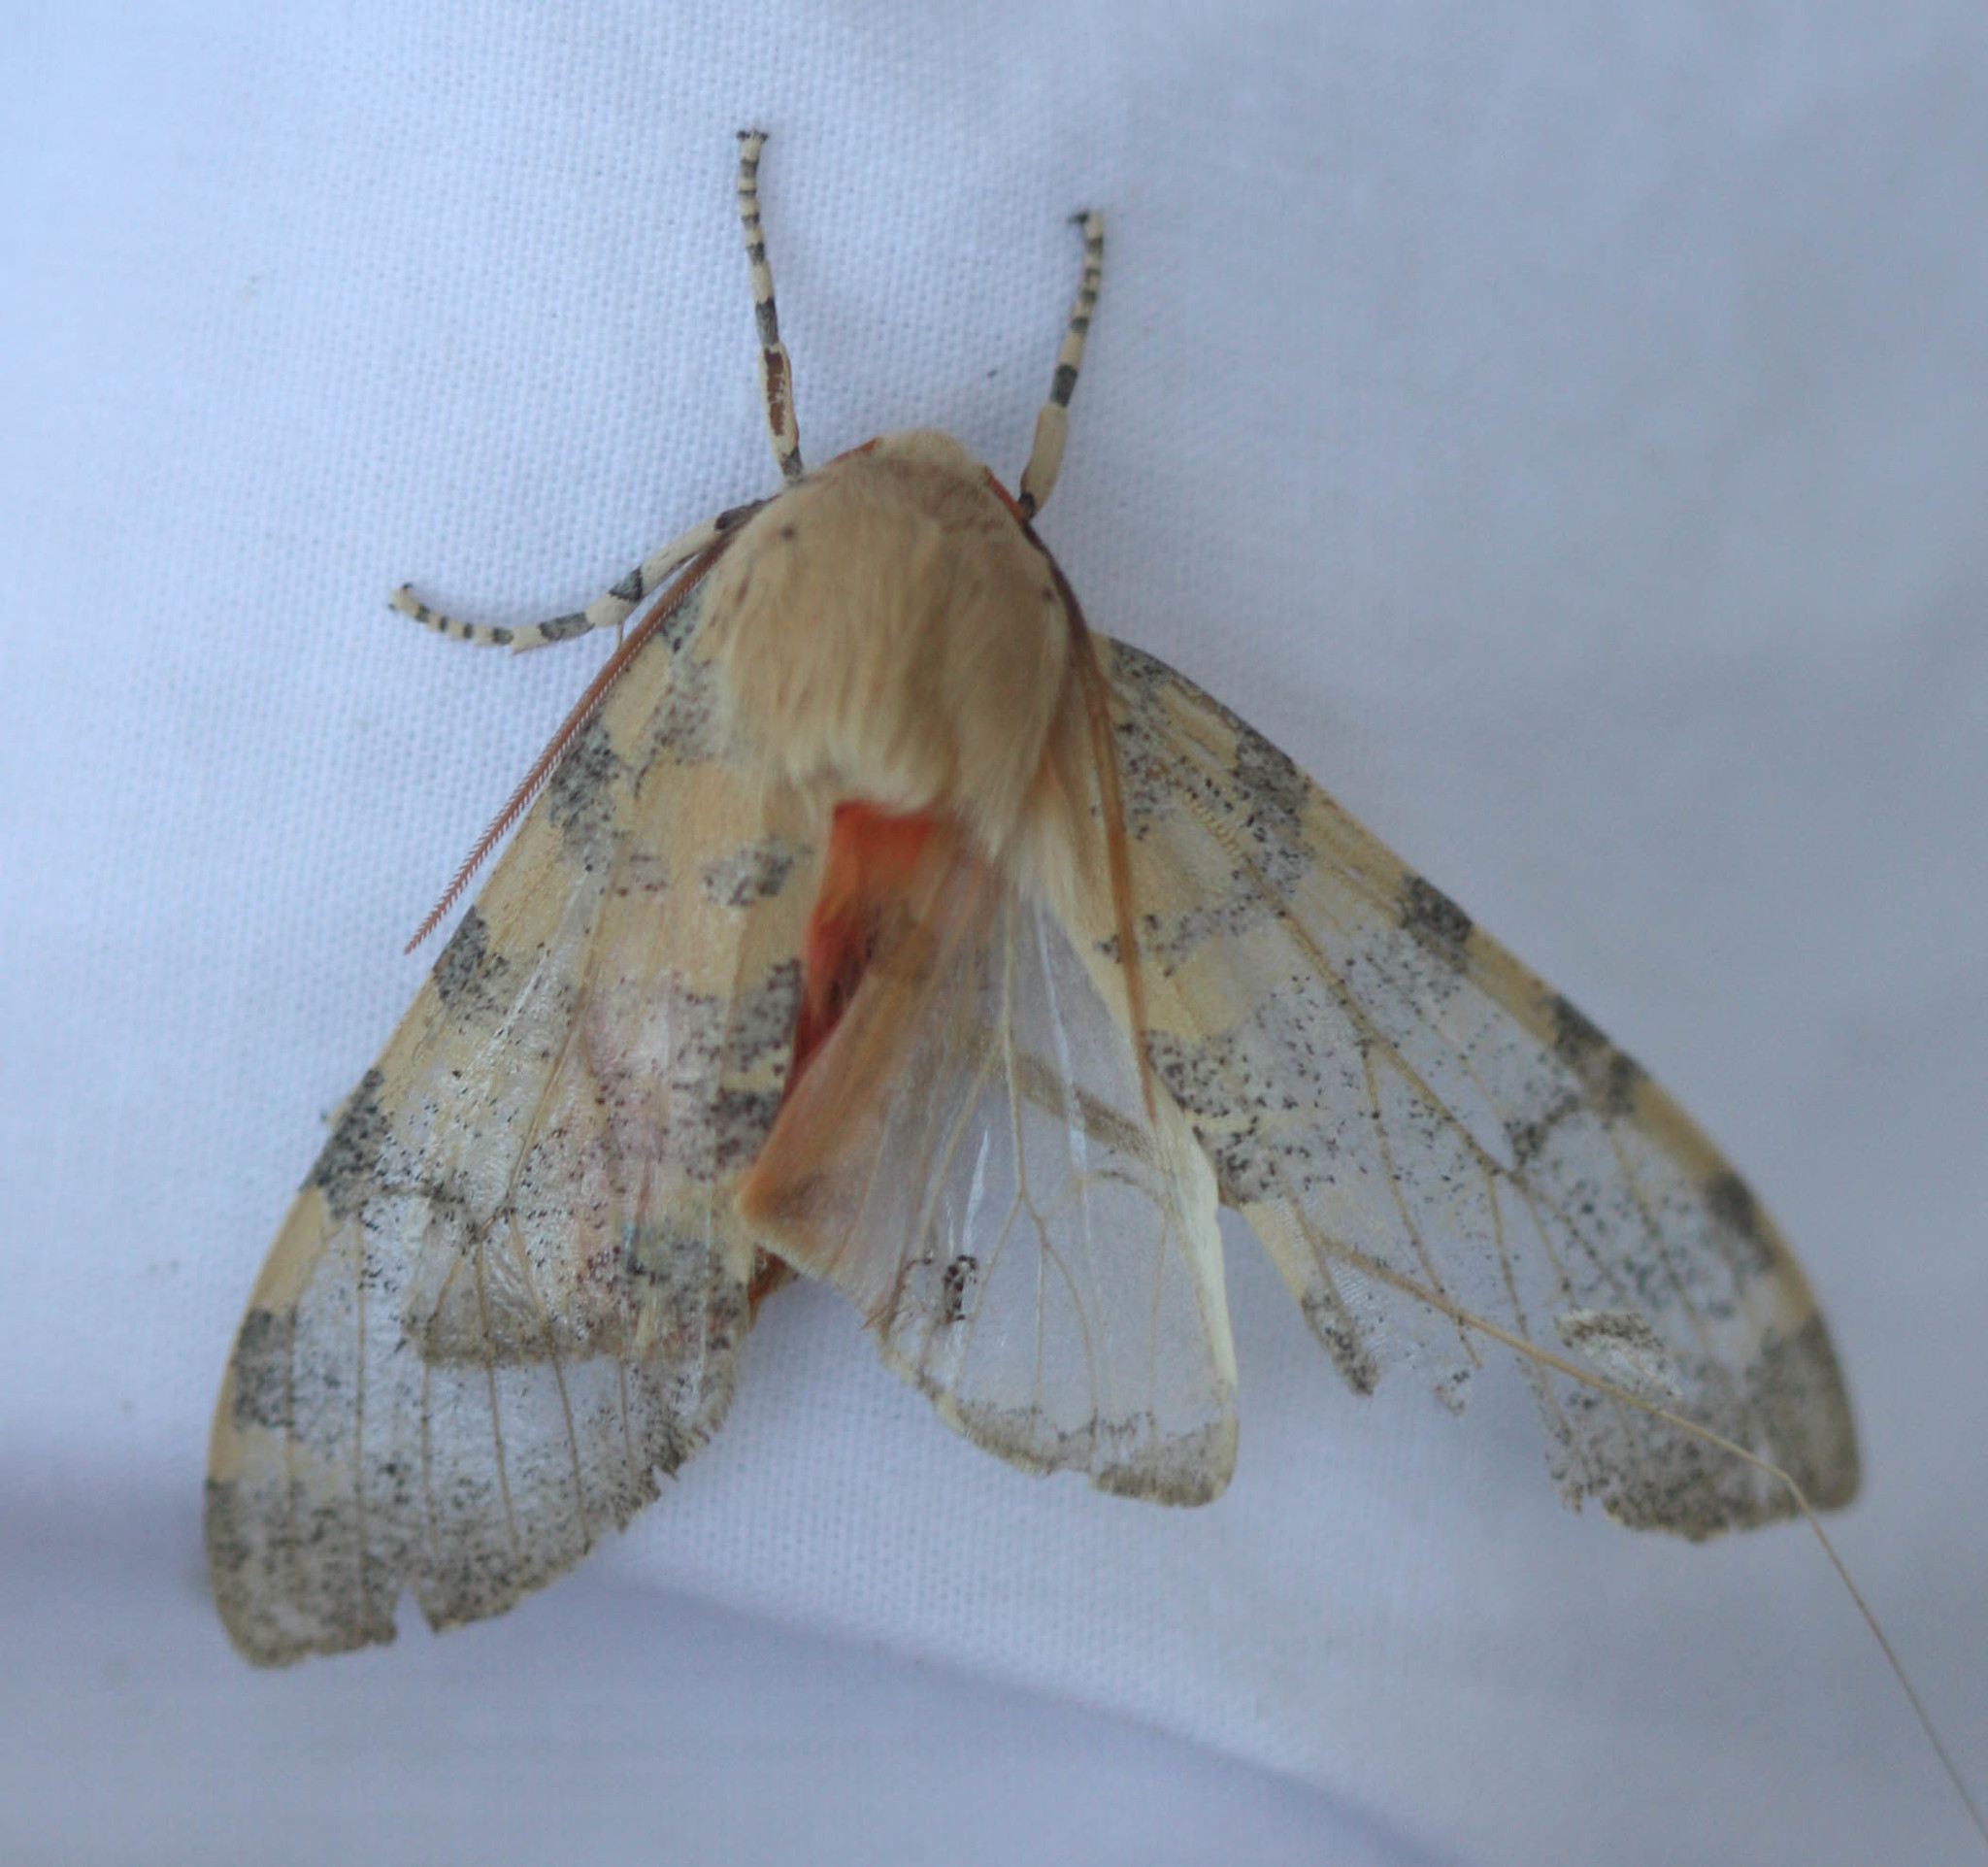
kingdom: Animalia
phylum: Arthropoda
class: Insecta
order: Lepidoptera
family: Erebidae
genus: Hemihyalea
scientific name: Hemihyalea edwardsii
